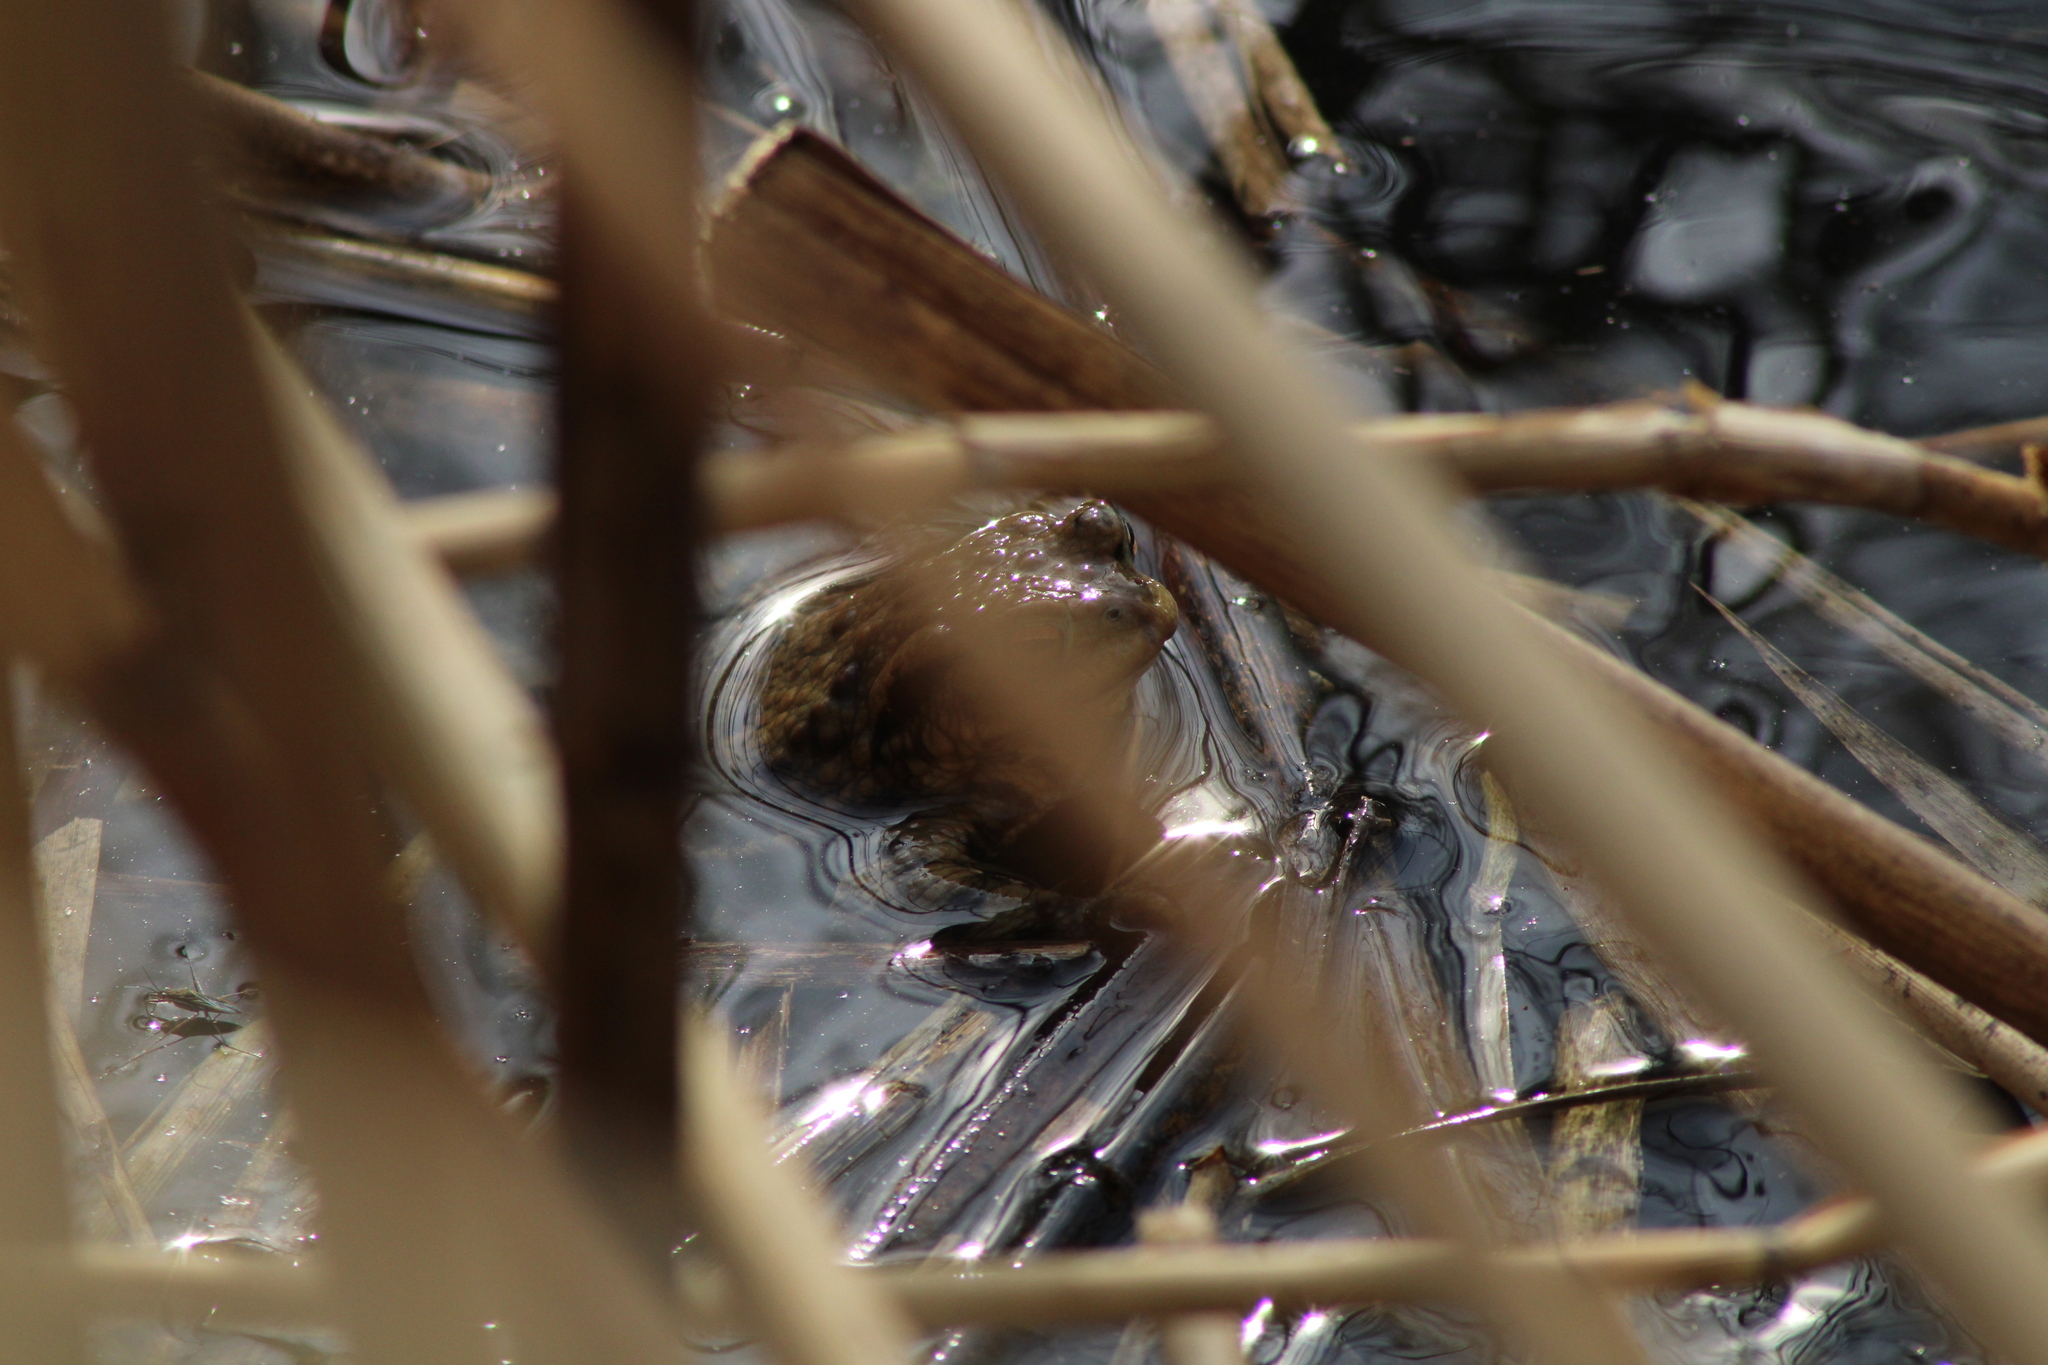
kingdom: Animalia
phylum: Chordata
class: Amphibia
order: Anura
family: Bufonidae
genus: Bufo
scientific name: Bufo bufo
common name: Common toad
